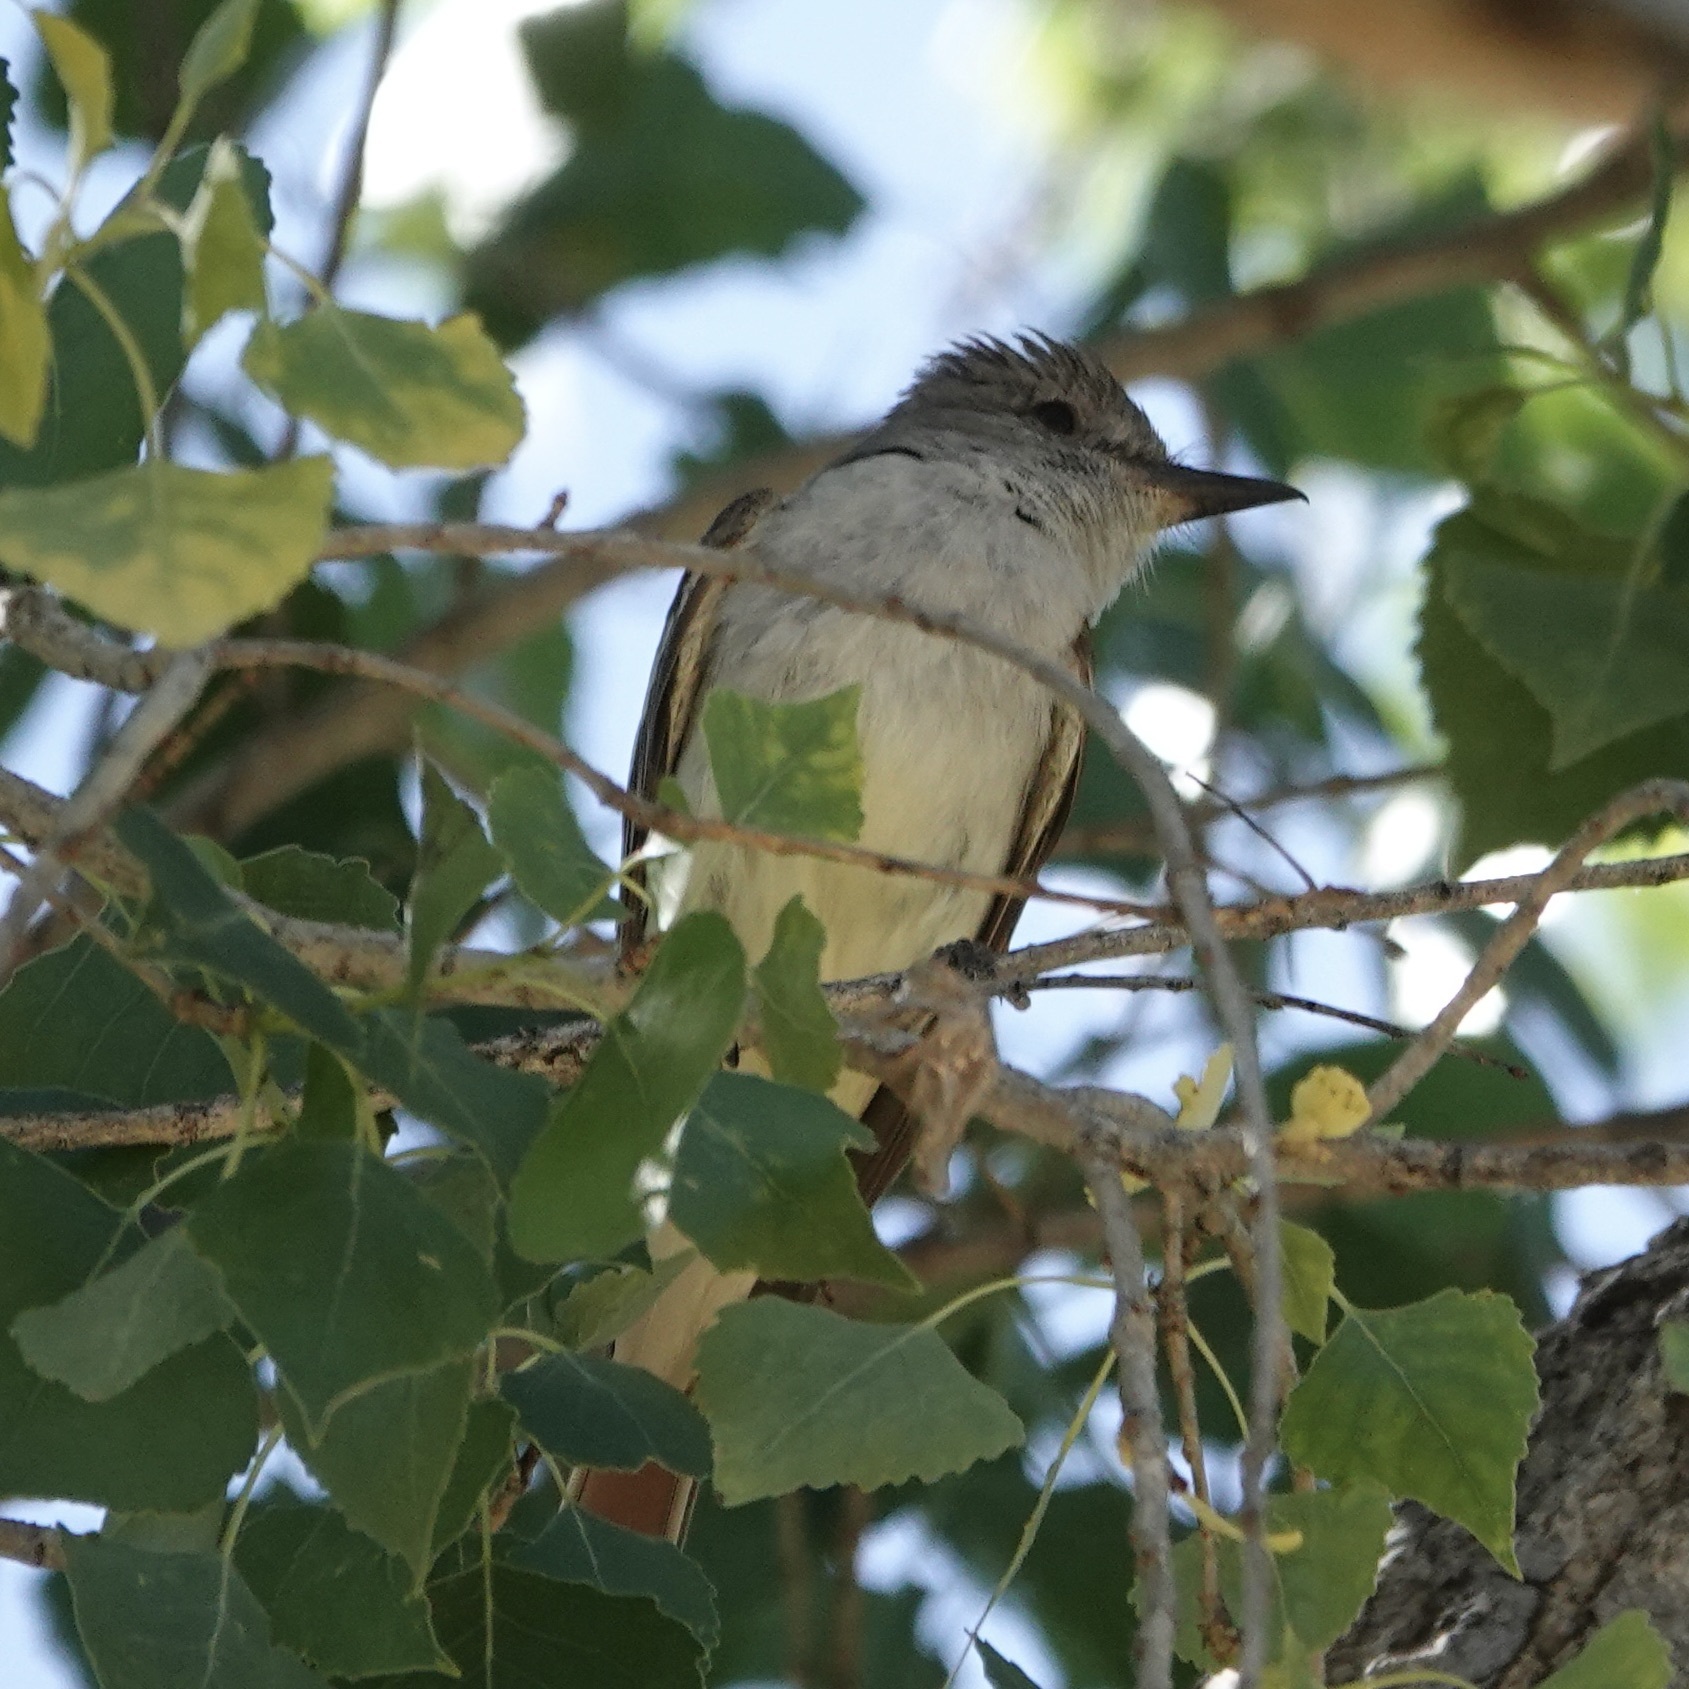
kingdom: Animalia
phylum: Chordata
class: Aves
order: Passeriformes
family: Tyrannidae
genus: Myiarchus
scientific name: Myiarchus cinerascens
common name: Ash-throated flycatcher
